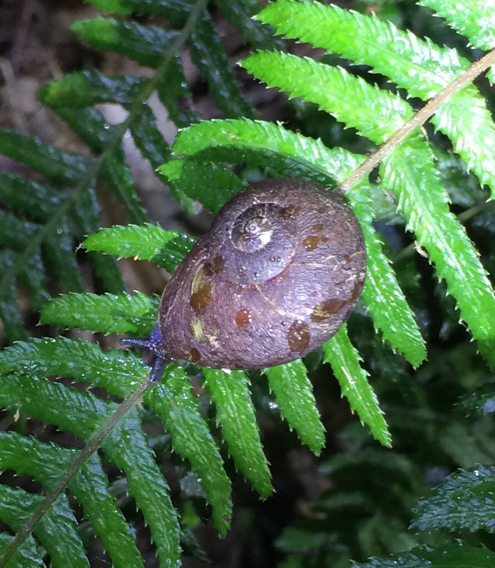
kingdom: Animalia
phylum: Mollusca
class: Gastropoda
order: Stylommatophora
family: Rhytididae
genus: Rhytida
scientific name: Rhytida greenwoodi
